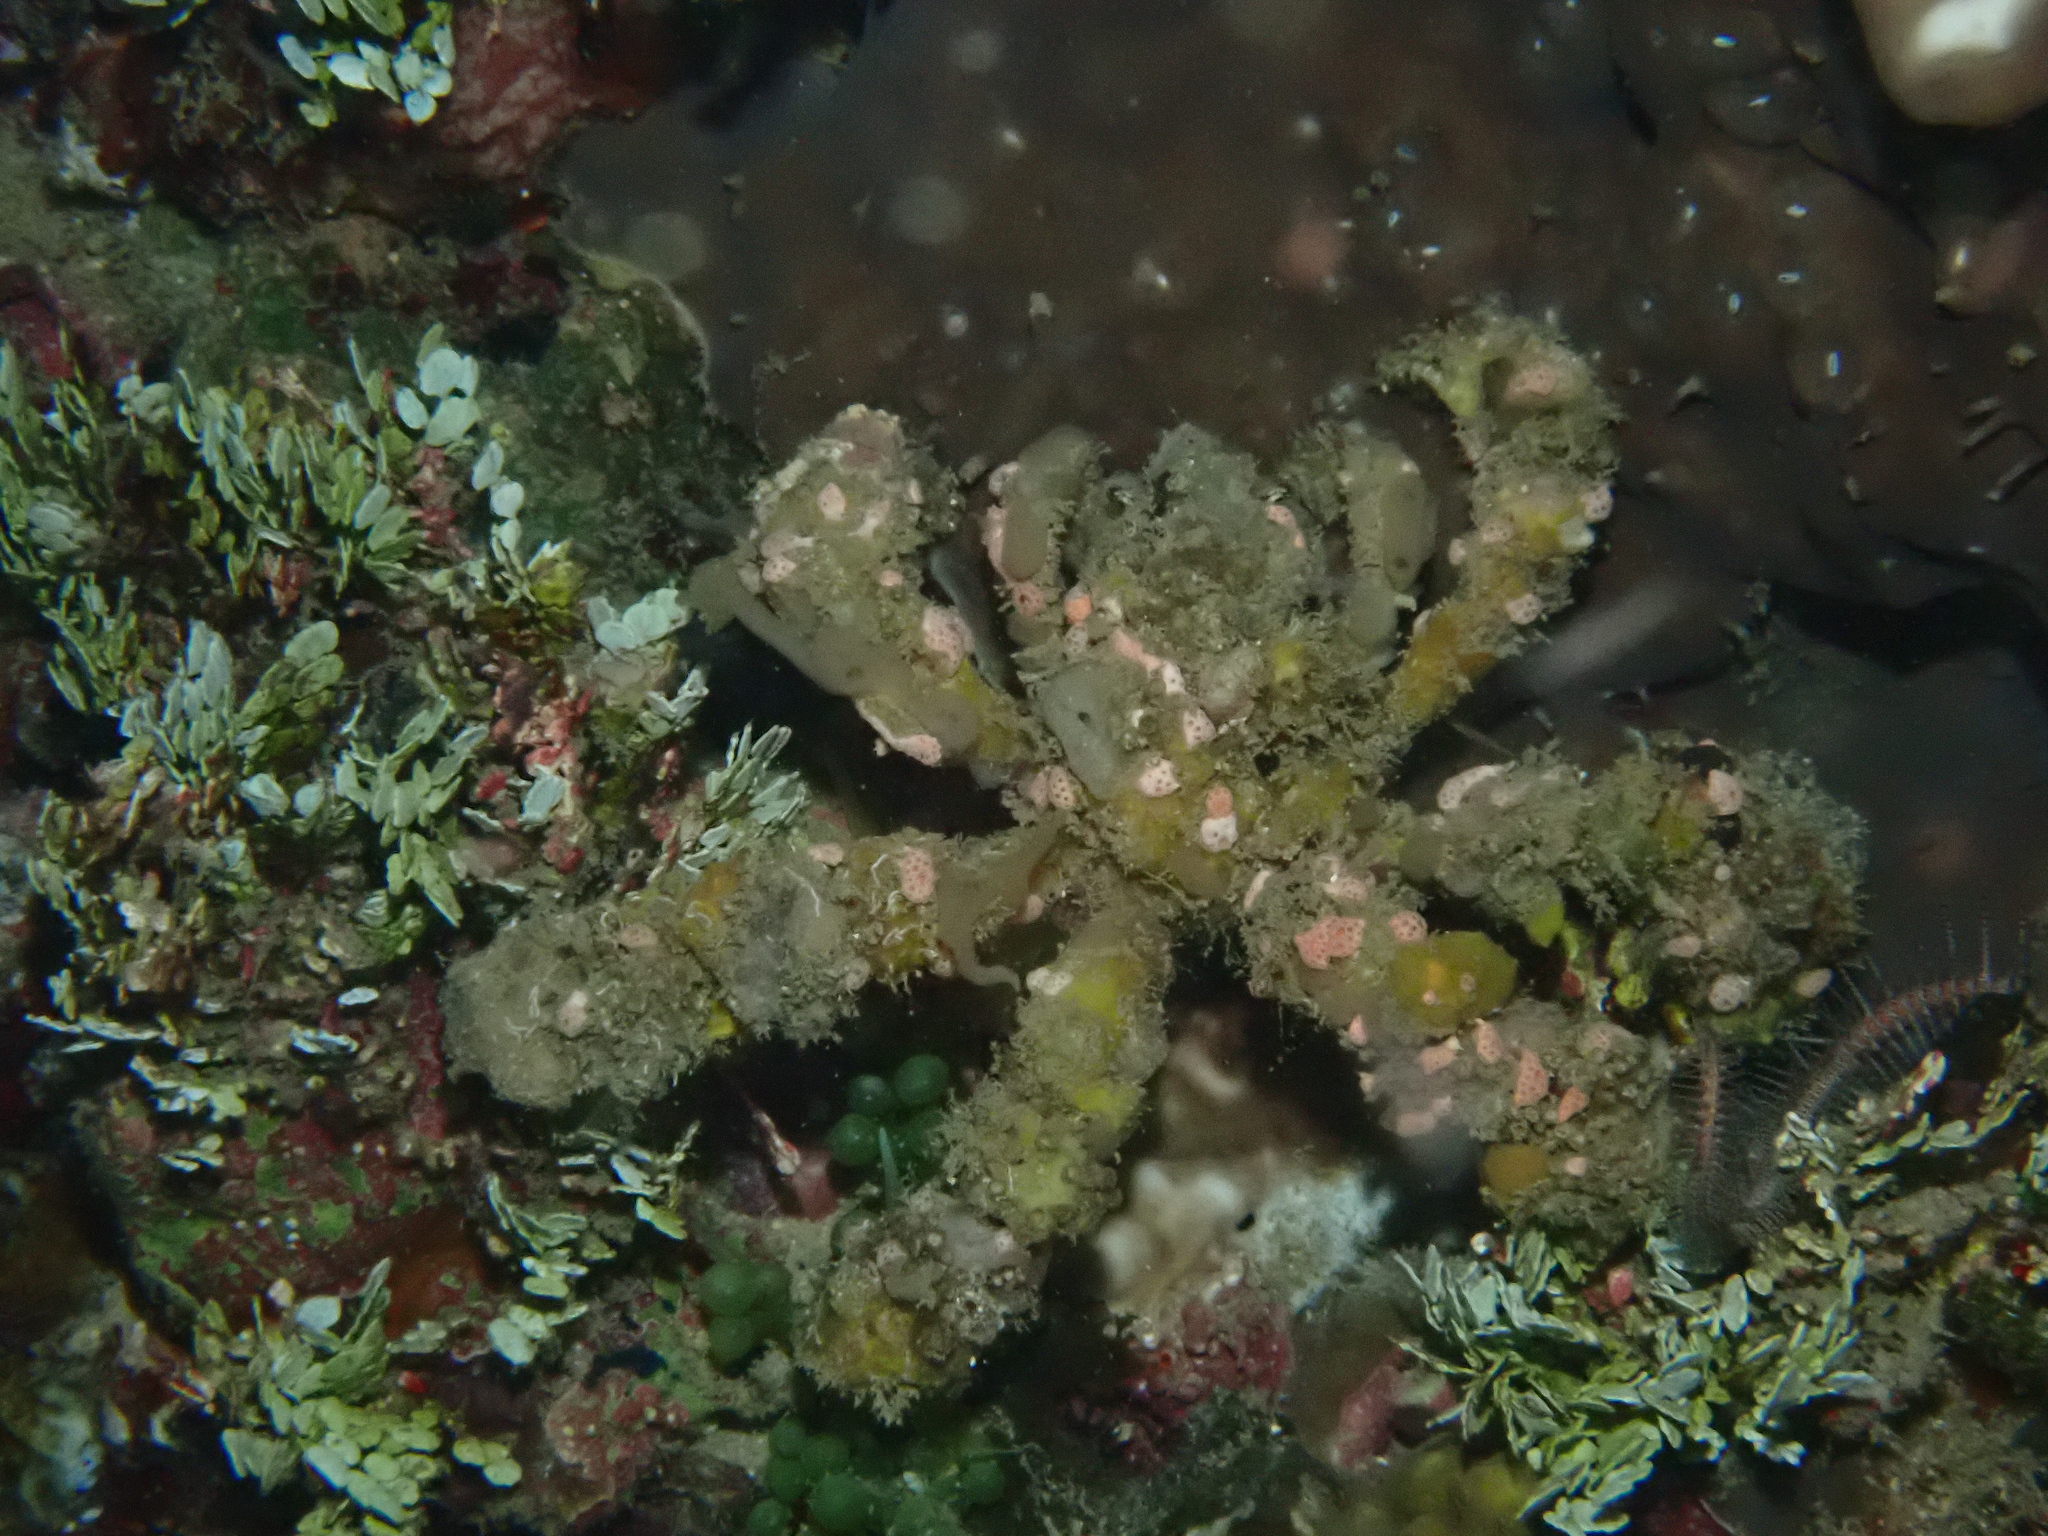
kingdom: Animalia
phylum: Arthropoda
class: Malacostraca
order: Decapoda
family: Inachidae
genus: Camposcia
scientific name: Camposcia retusa
